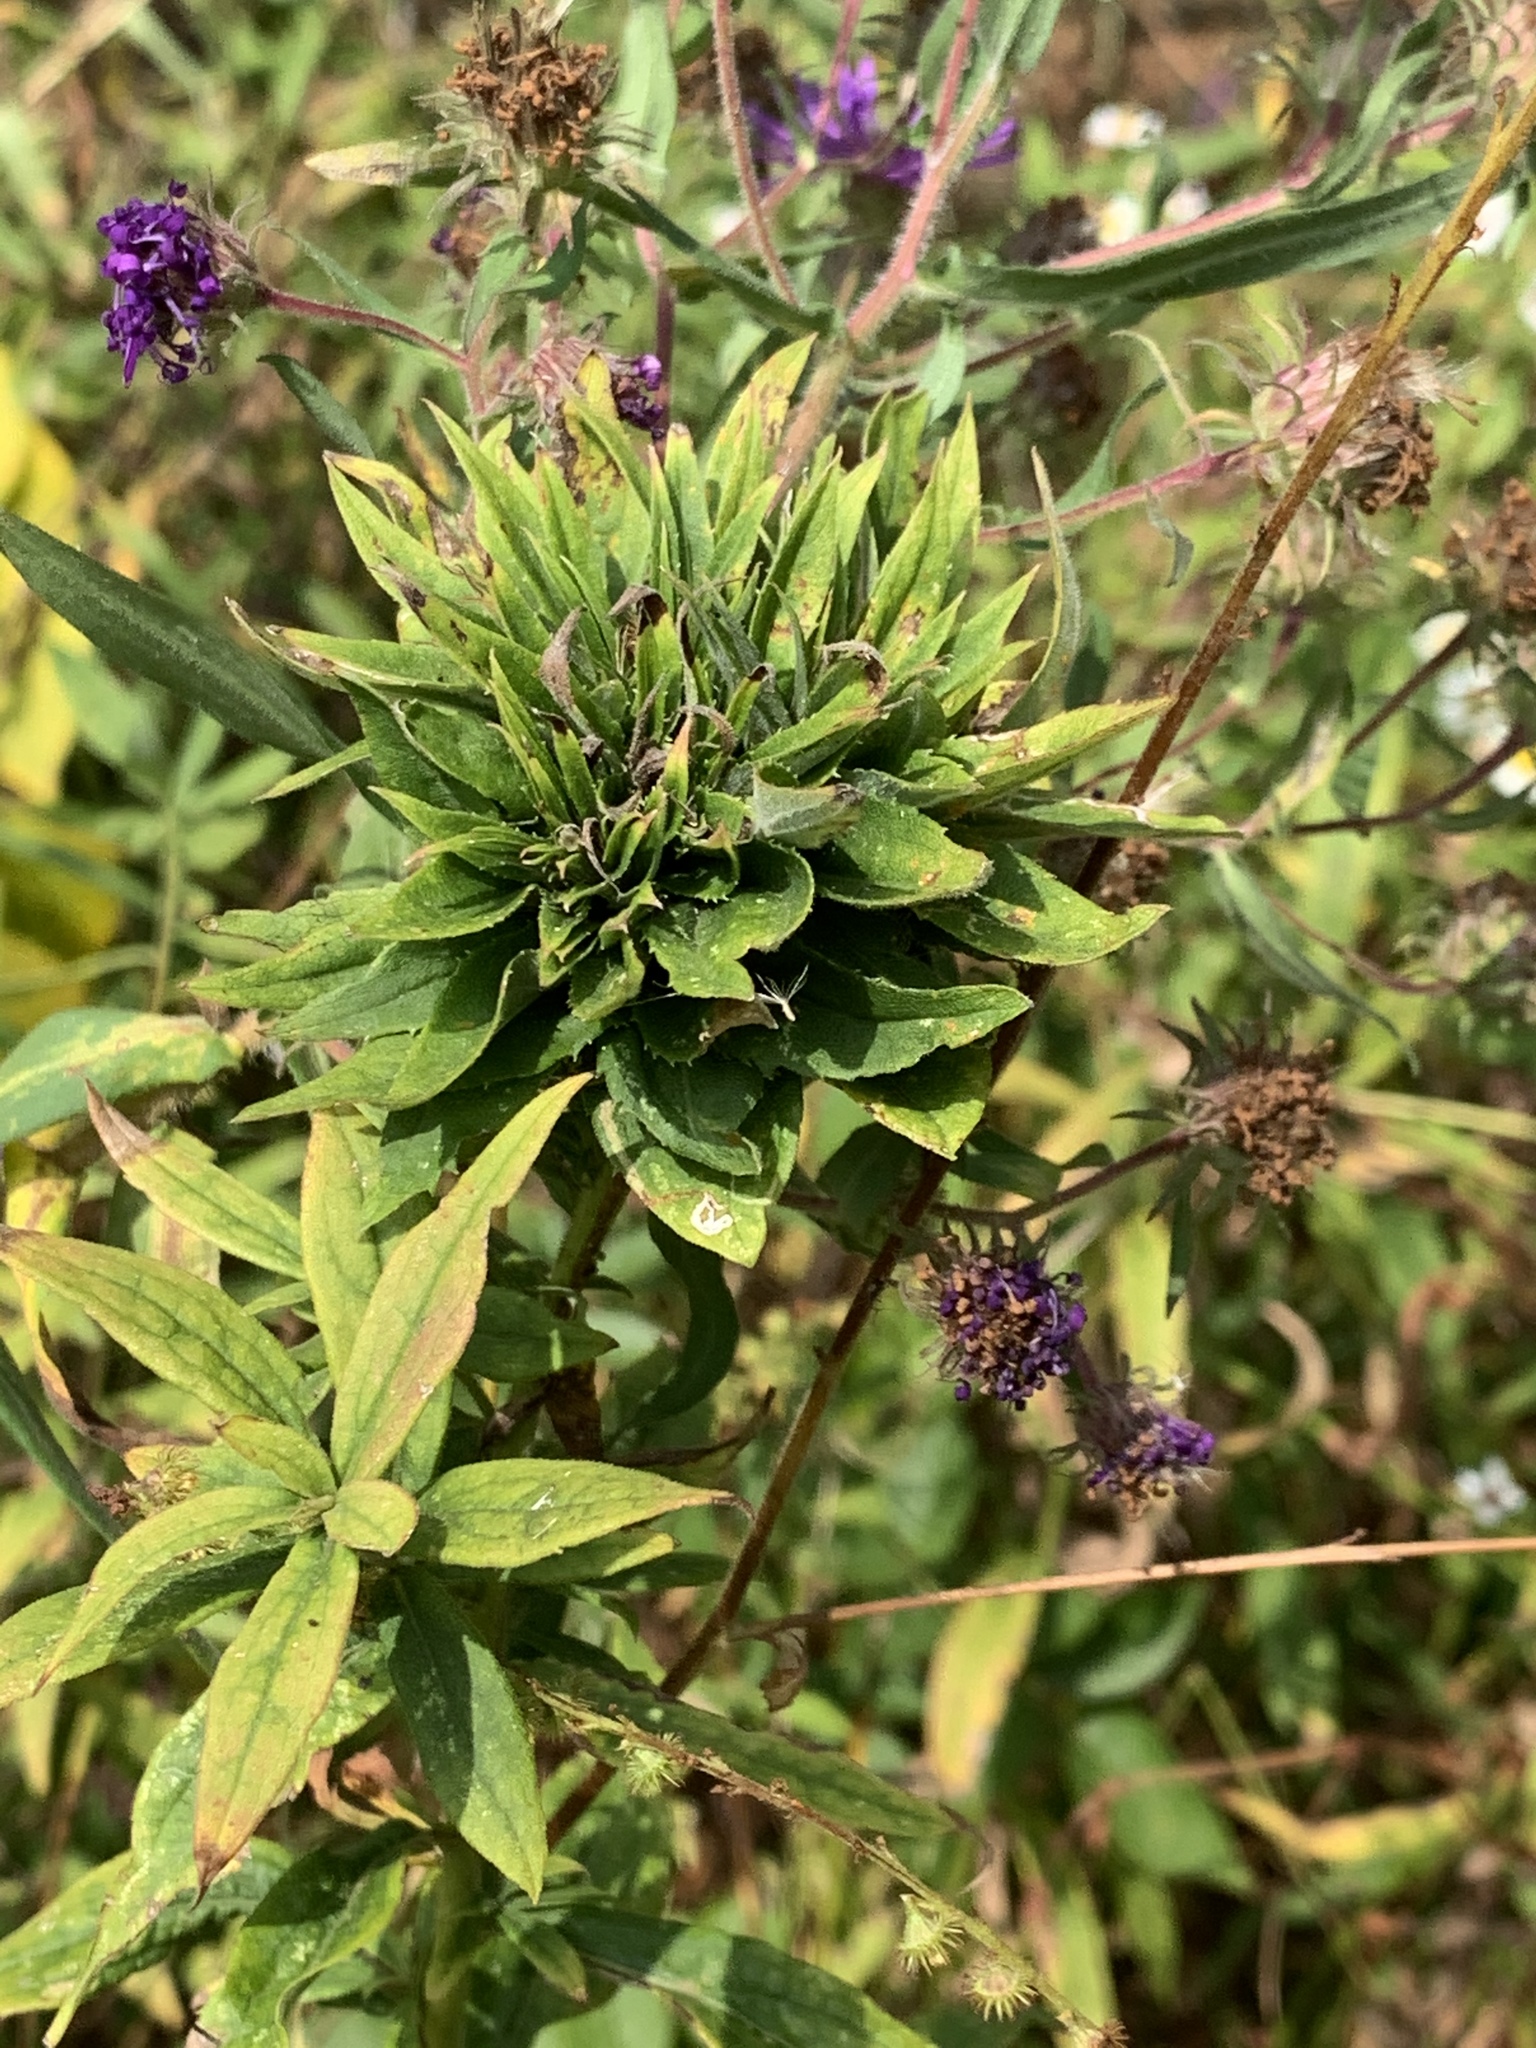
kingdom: Animalia
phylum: Arthropoda
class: Insecta
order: Diptera
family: Cecidomyiidae
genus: Rhopalomyia
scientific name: Rhopalomyia solidaginis
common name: Goldenrod bunch gall midge
